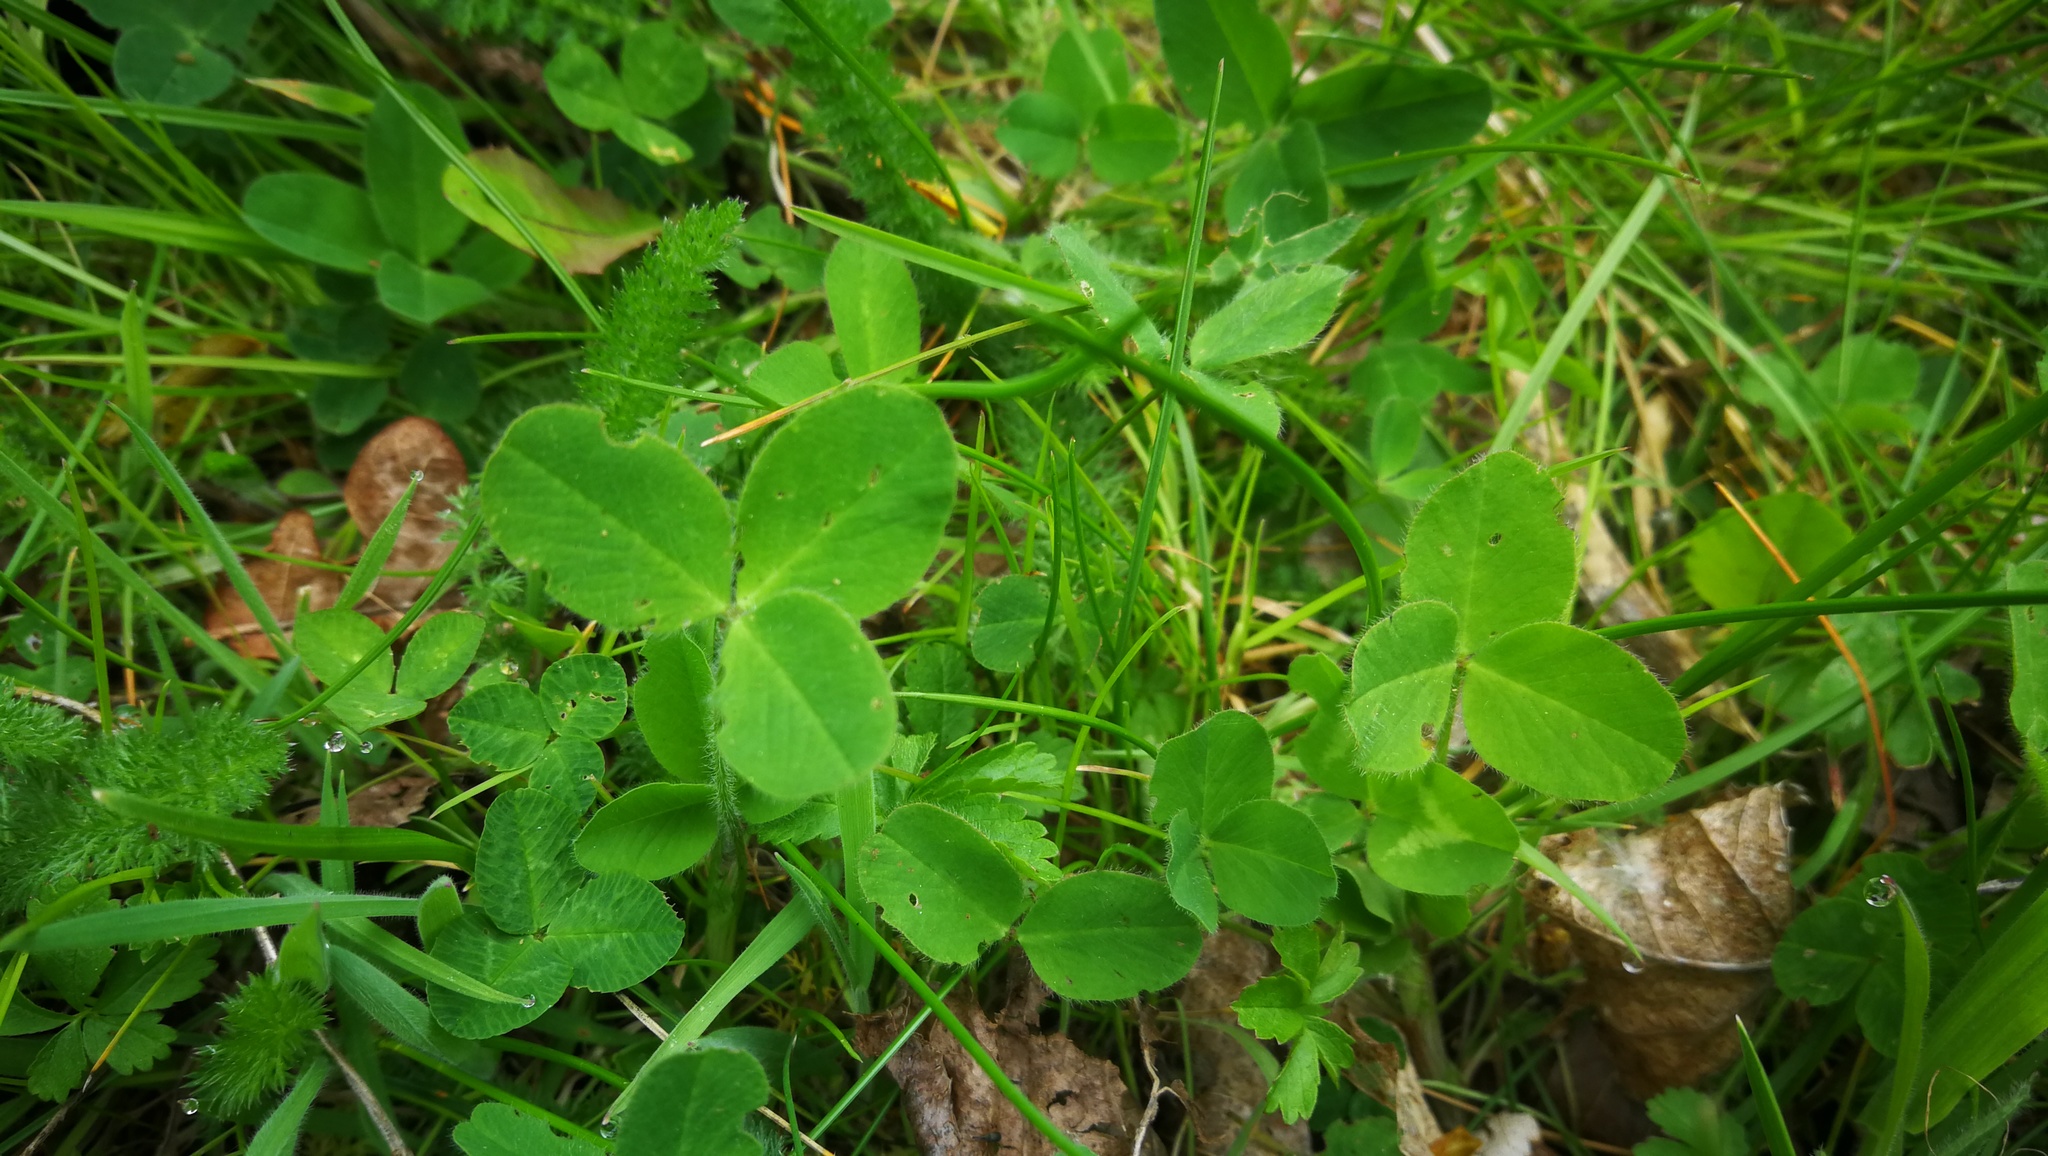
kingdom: Plantae
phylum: Tracheophyta
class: Magnoliopsida
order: Fabales
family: Fabaceae
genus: Trifolium
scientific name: Trifolium pratense
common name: Red clover
